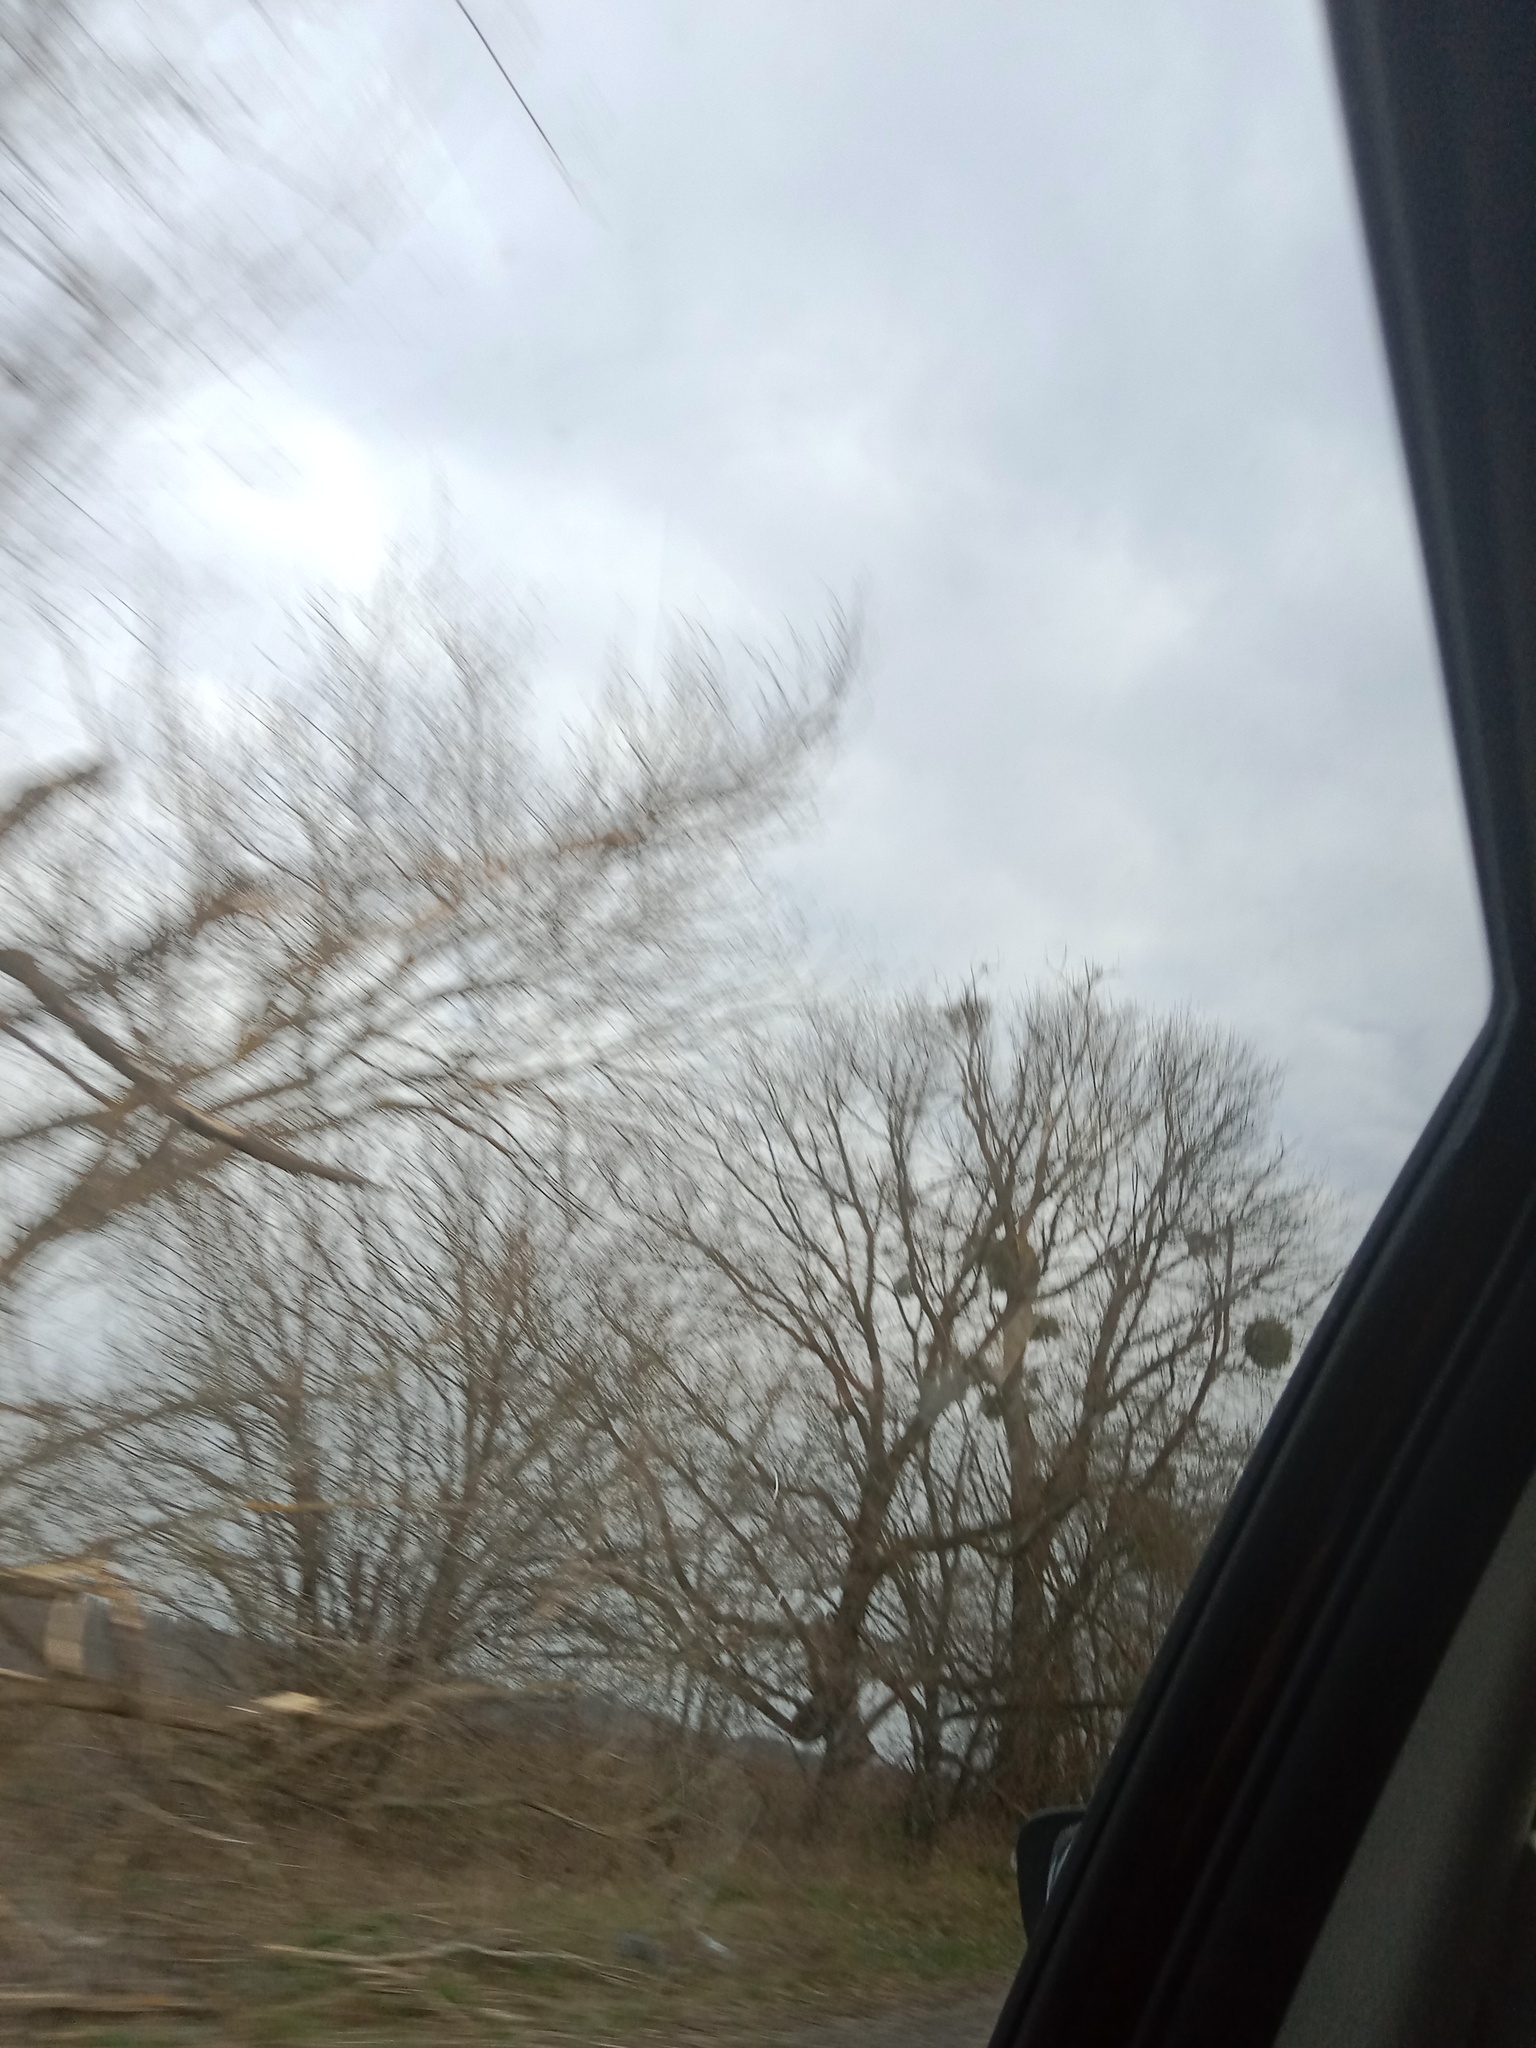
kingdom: Plantae
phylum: Tracheophyta
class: Magnoliopsida
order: Santalales
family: Viscaceae
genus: Viscum
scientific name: Viscum album
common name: Mistletoe
